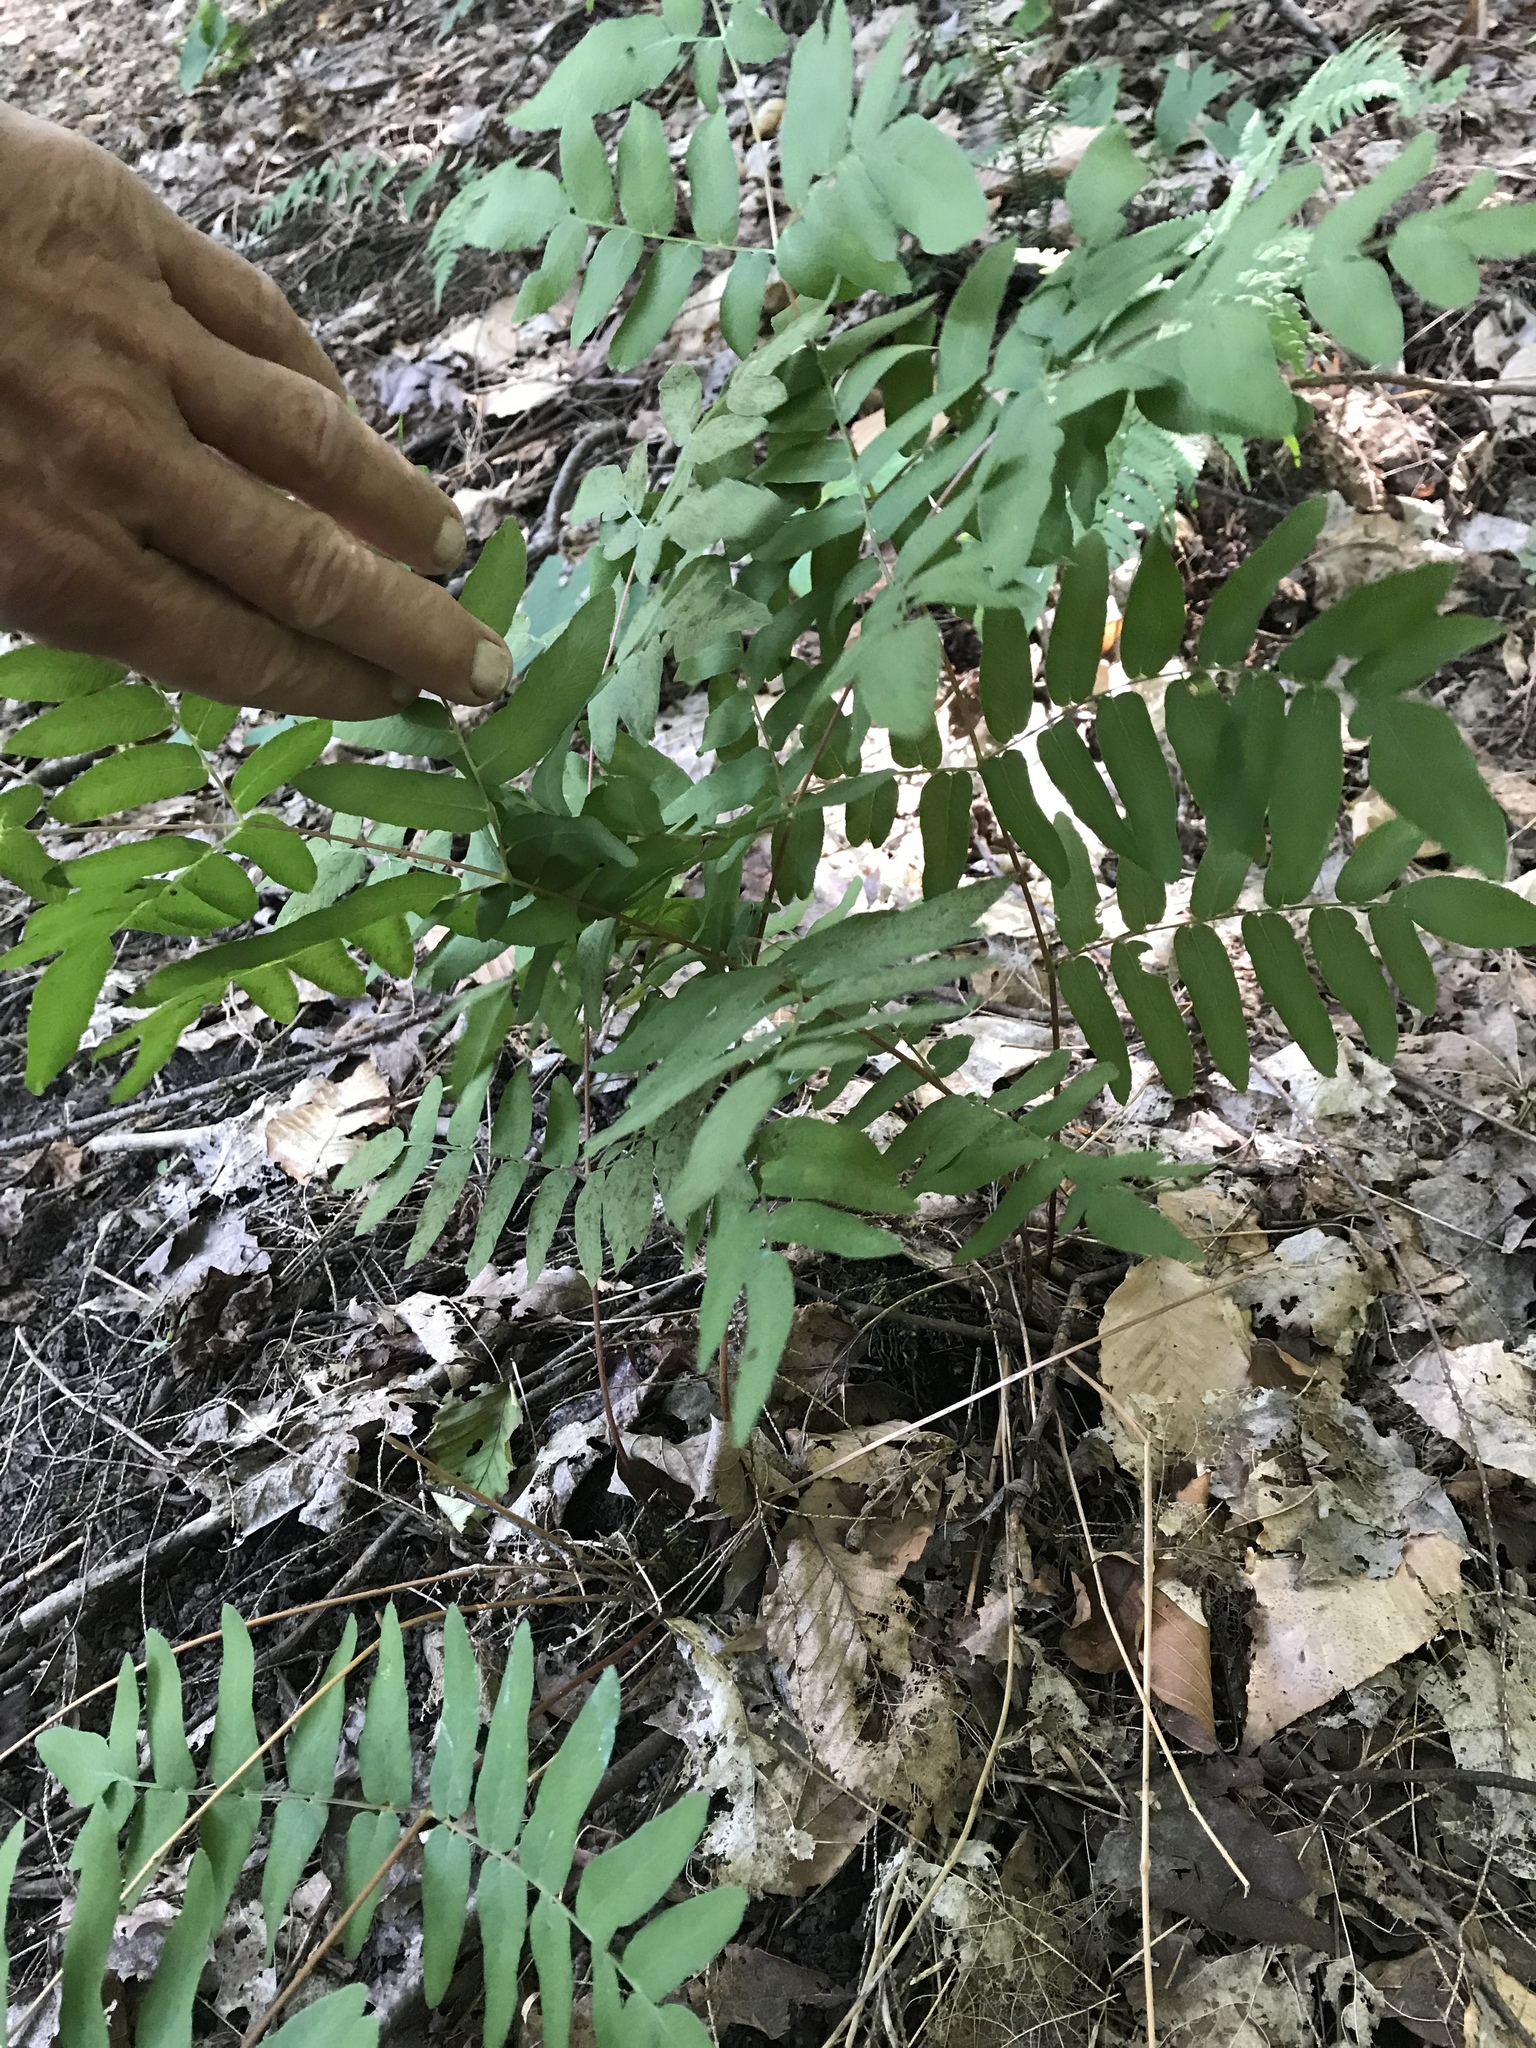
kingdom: Plantae
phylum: Tracheophyta
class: Polypodiopsida
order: Osmundales
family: Osmundaceae
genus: Osmunda
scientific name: Osmunda spectabilis
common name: American royal fern
